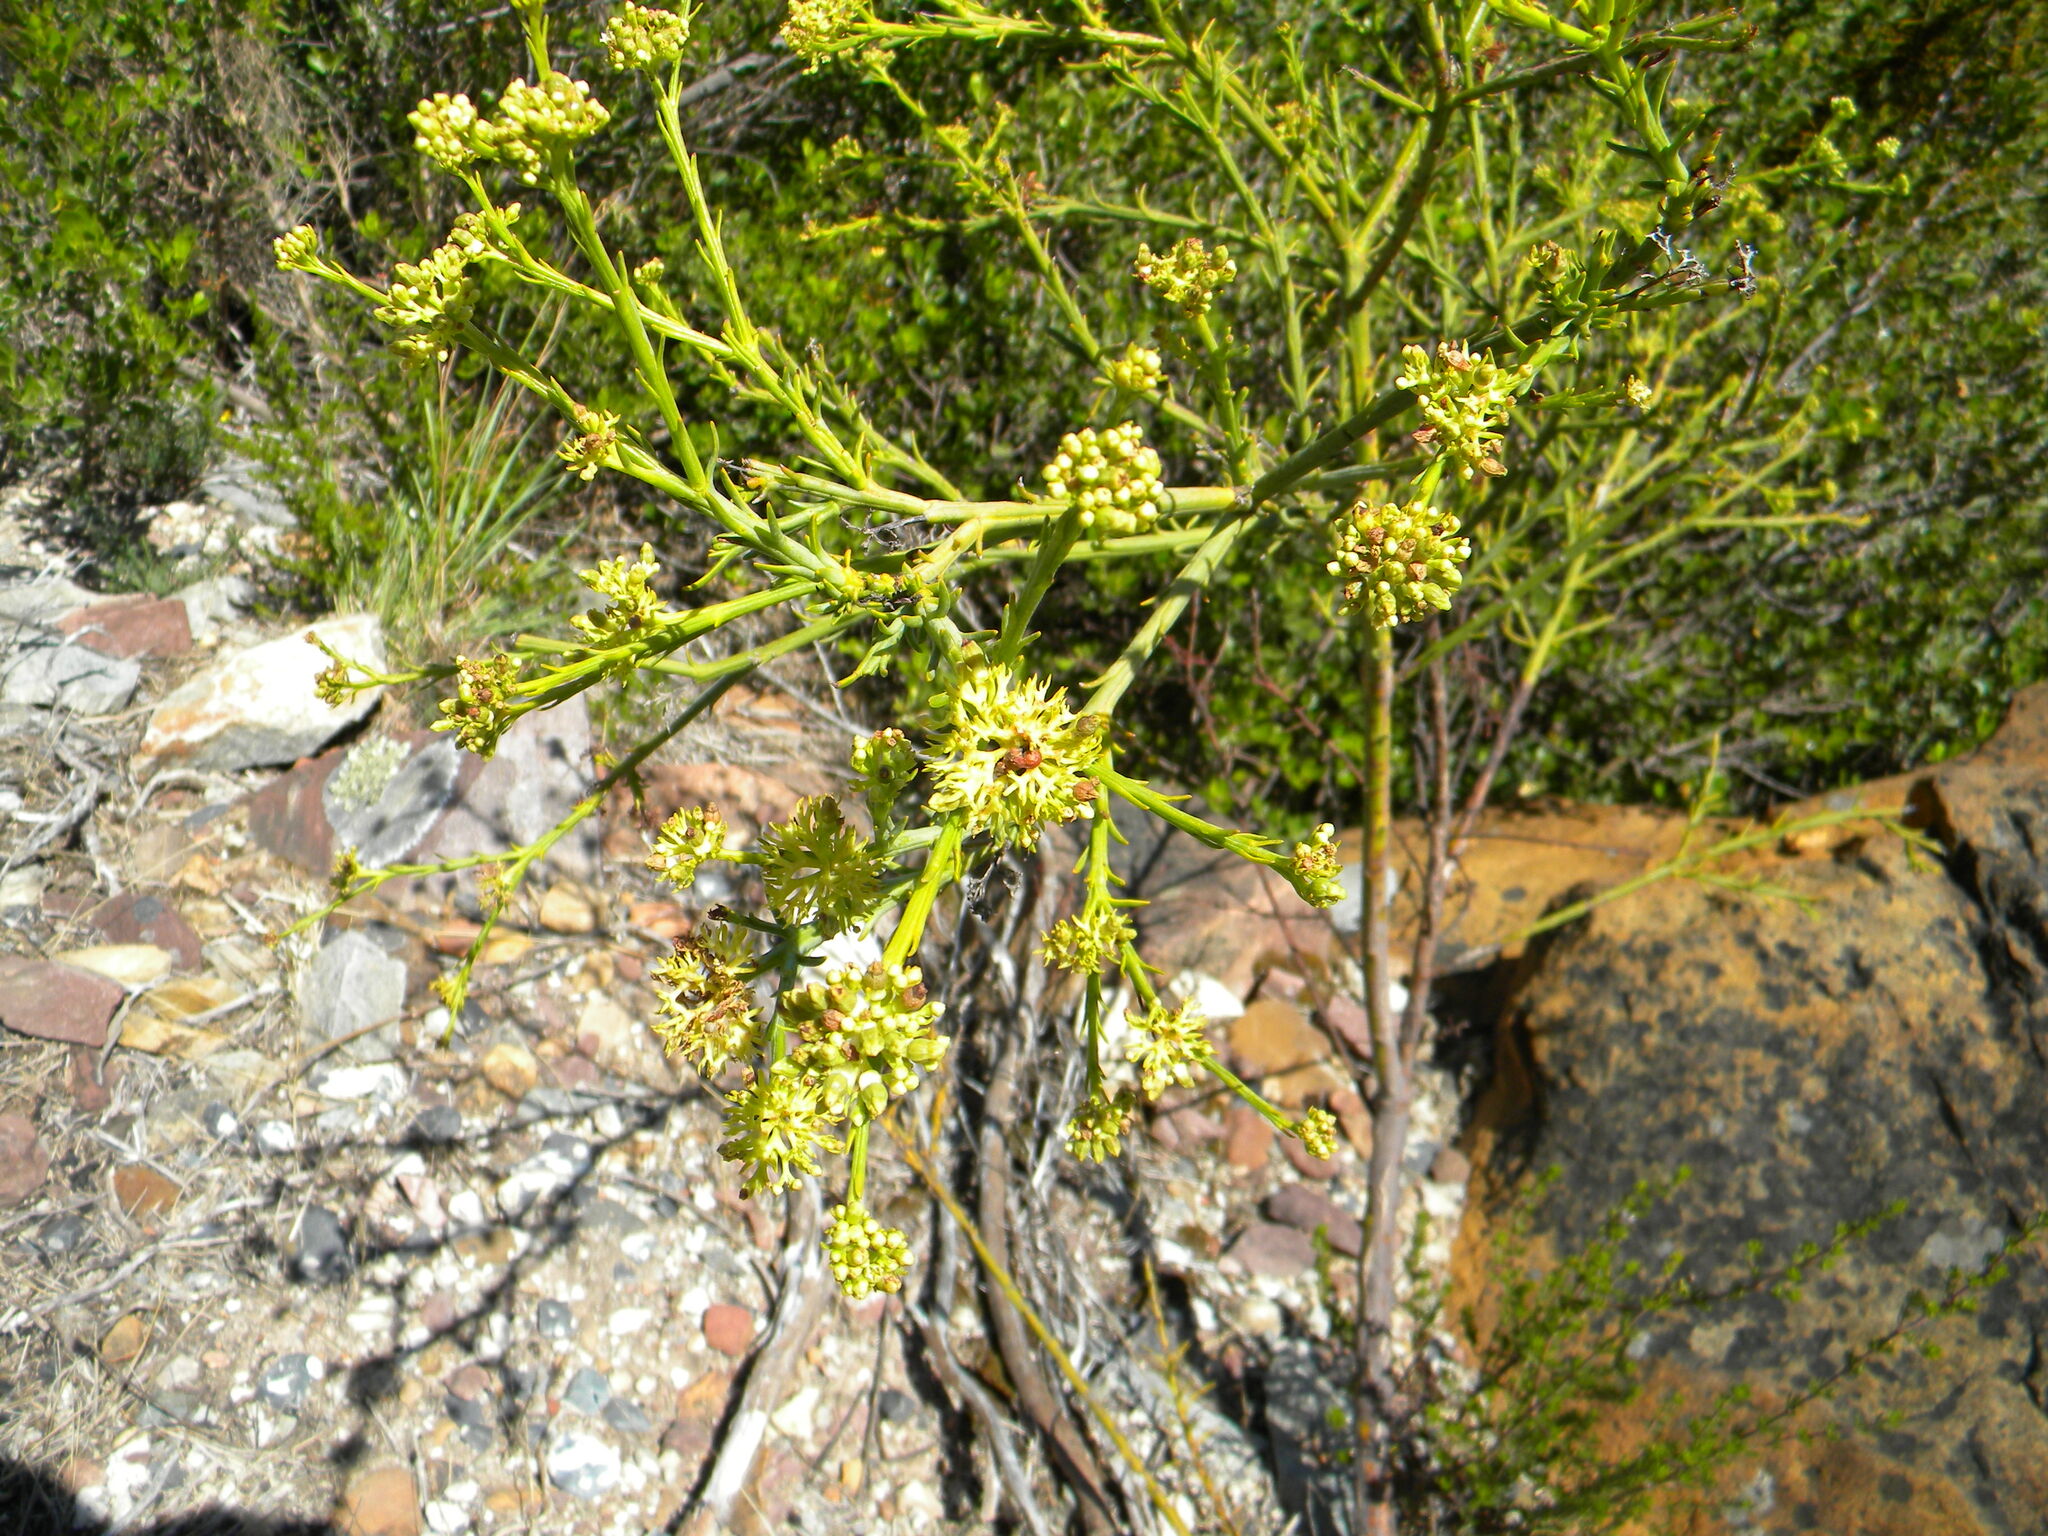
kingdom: Plantae
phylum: Tracheophyta
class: Magnoliopsida
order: Santalales
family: Thesiaceae
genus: Thesium
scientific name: Thesium strictum
